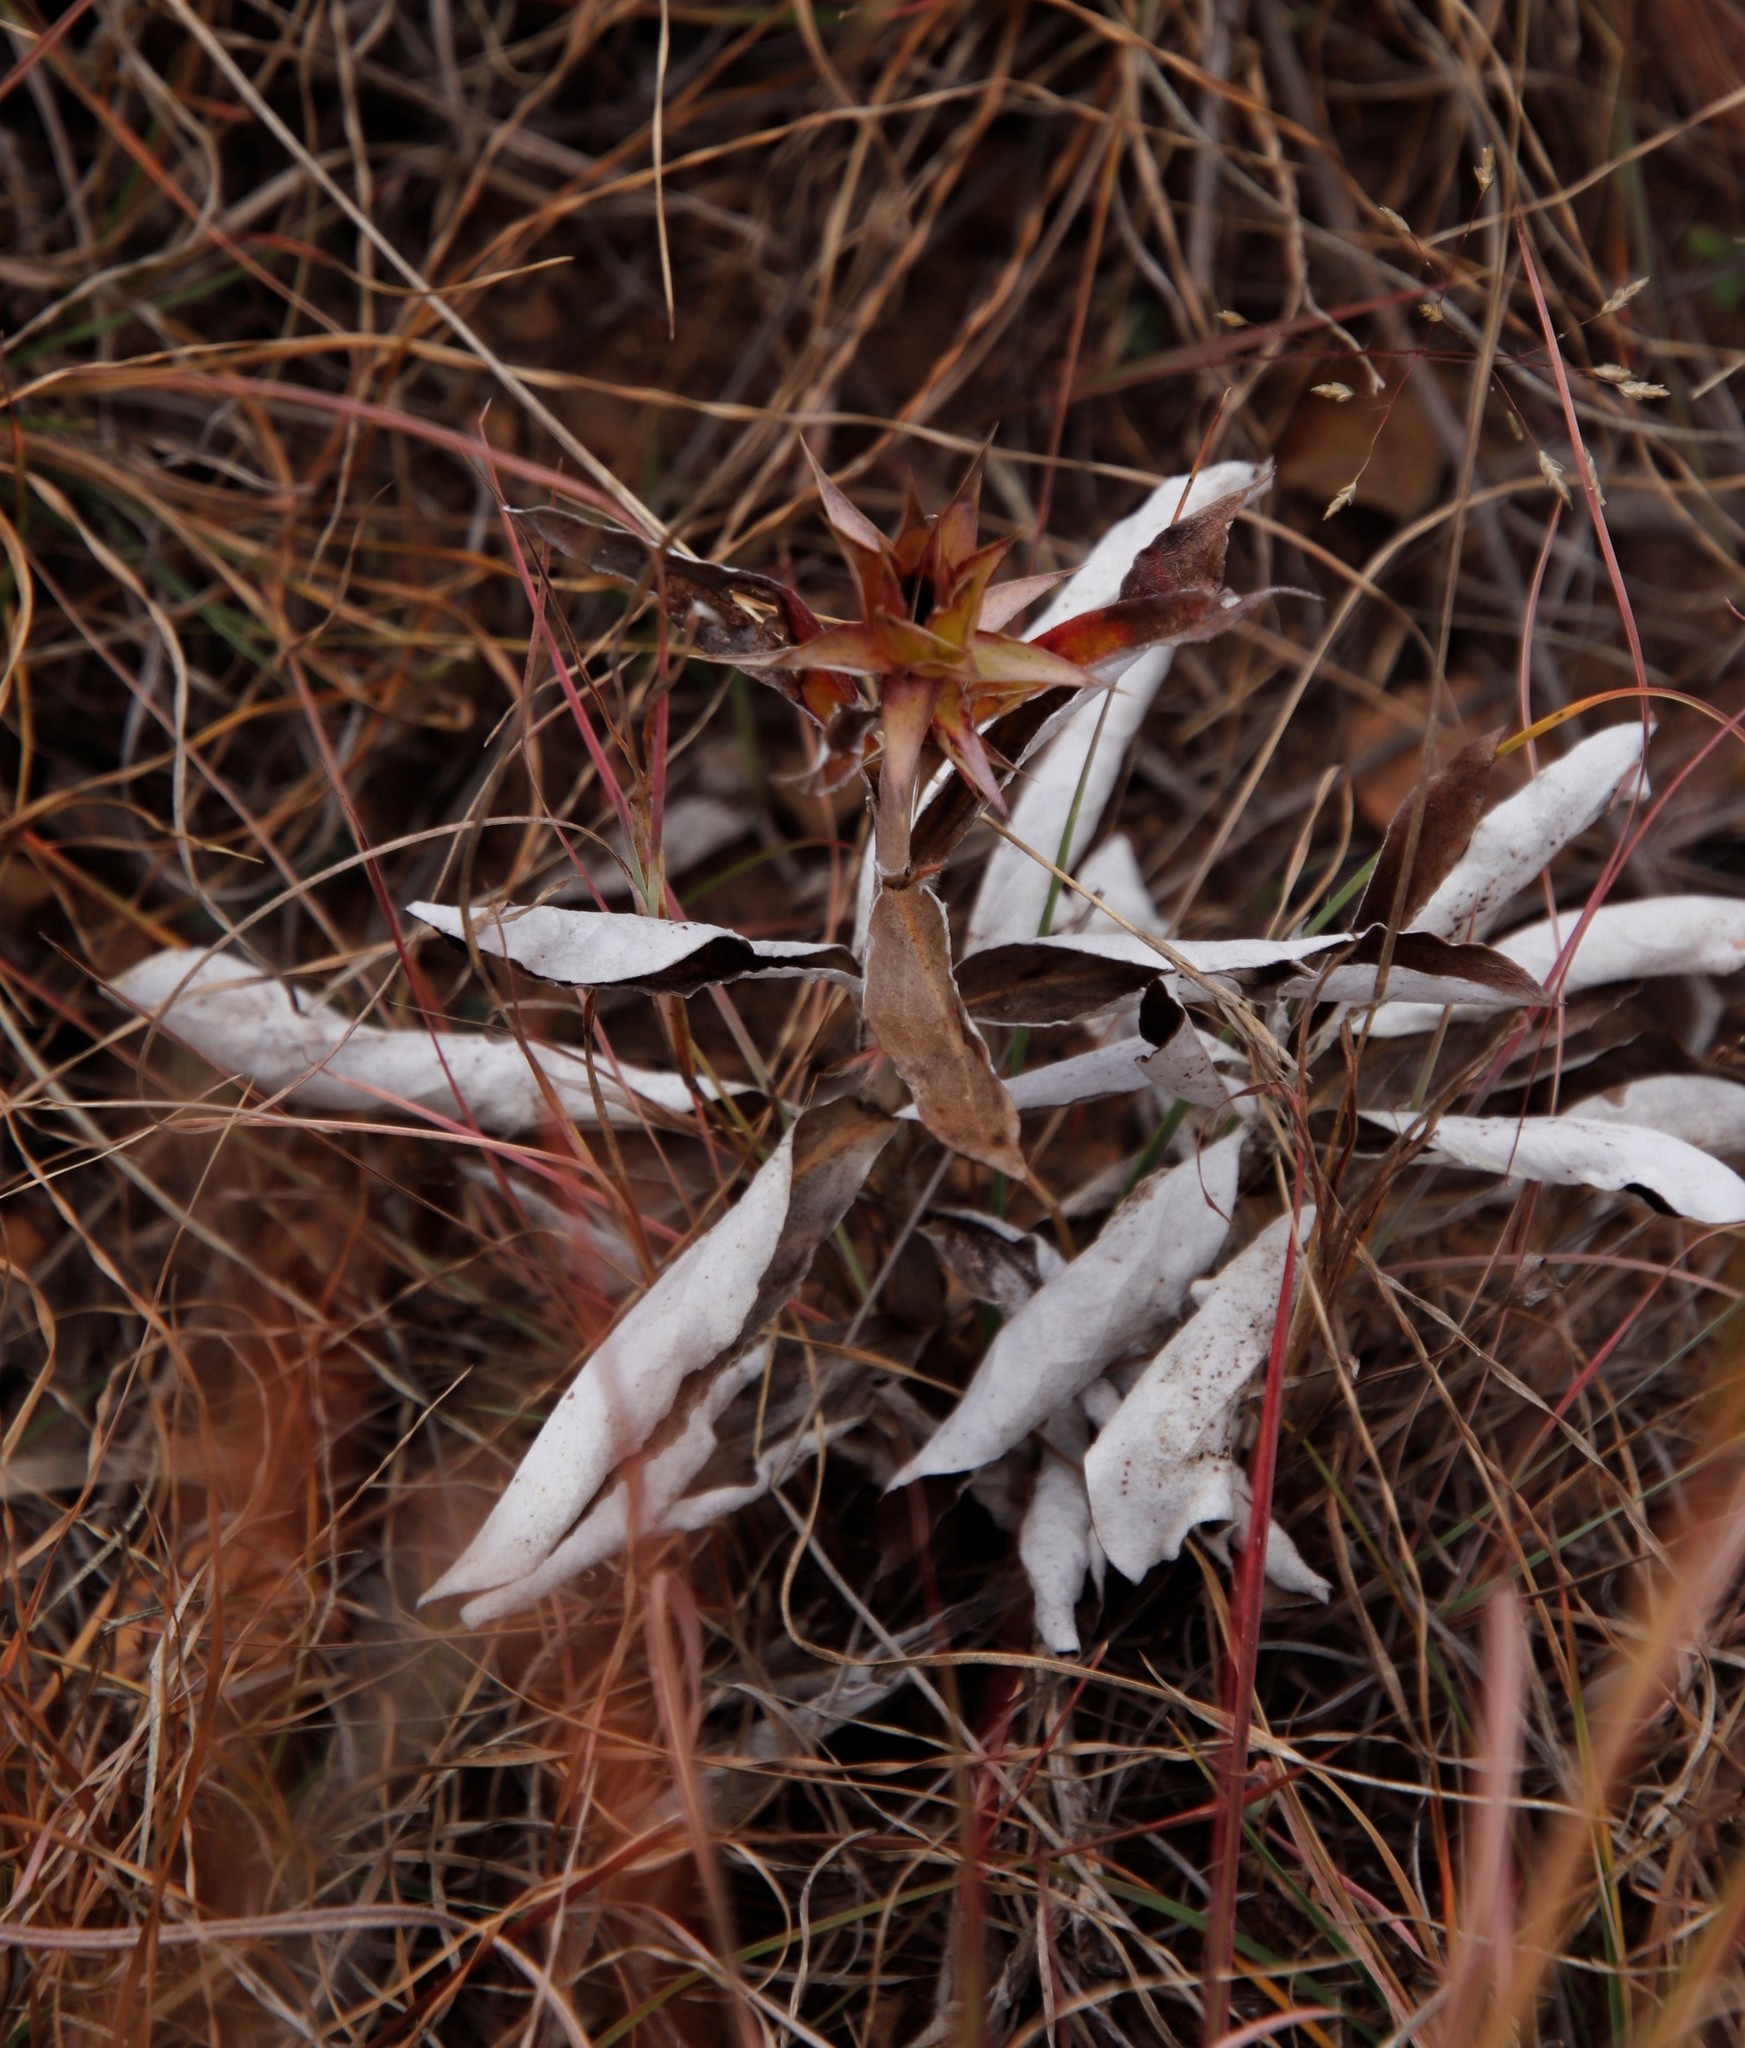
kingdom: Plantae
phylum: Tracheophyta
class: Magnoliopsida
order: Asterales
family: Asteraceae
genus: Macledium
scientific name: Macledium zeyheri
